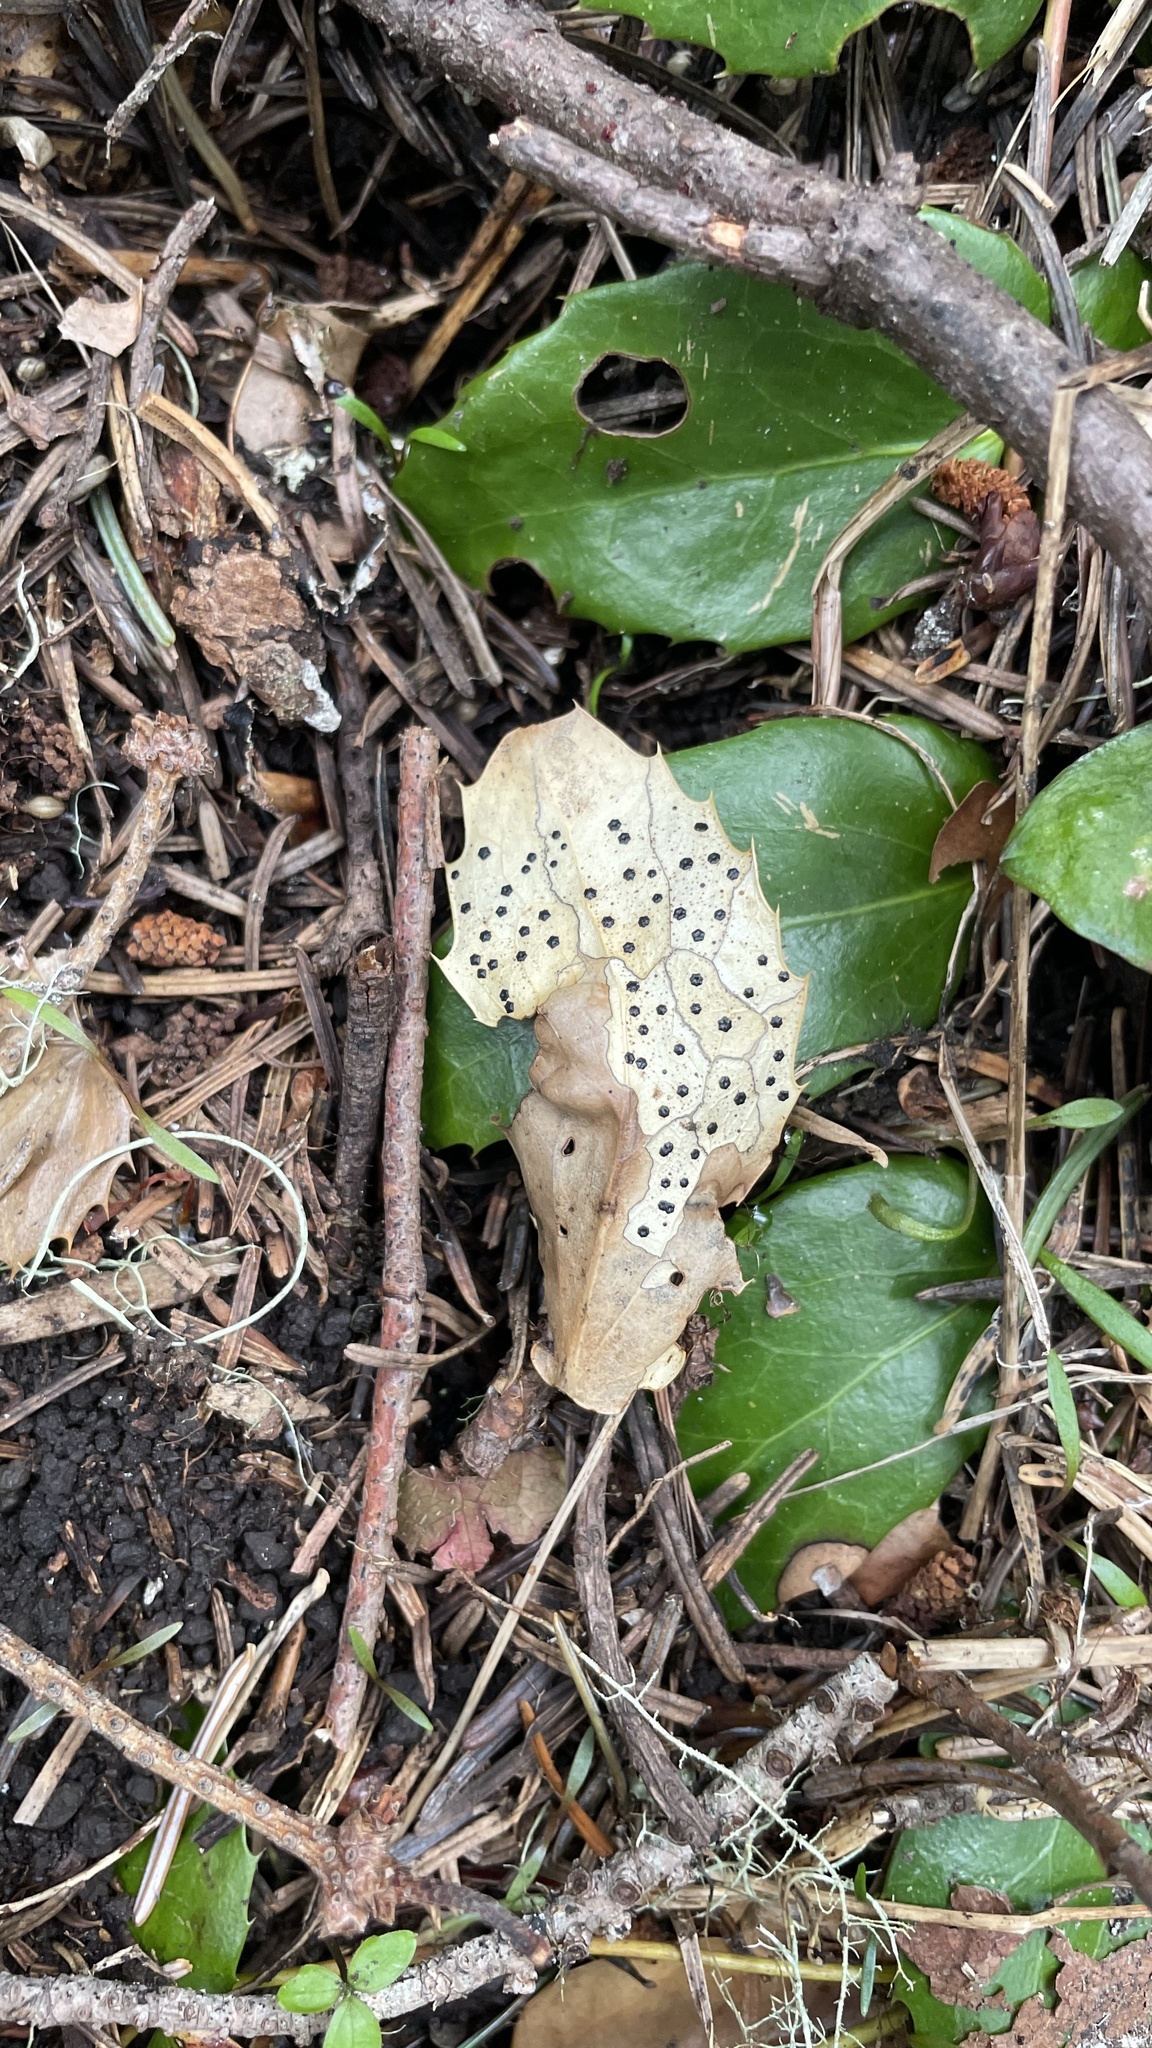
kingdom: Fungi
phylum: Ascomycota
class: Leotiomycetes
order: Rhytismatales
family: Rhytismataceae
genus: Coccomyces
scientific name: Coccomyces dentatus
